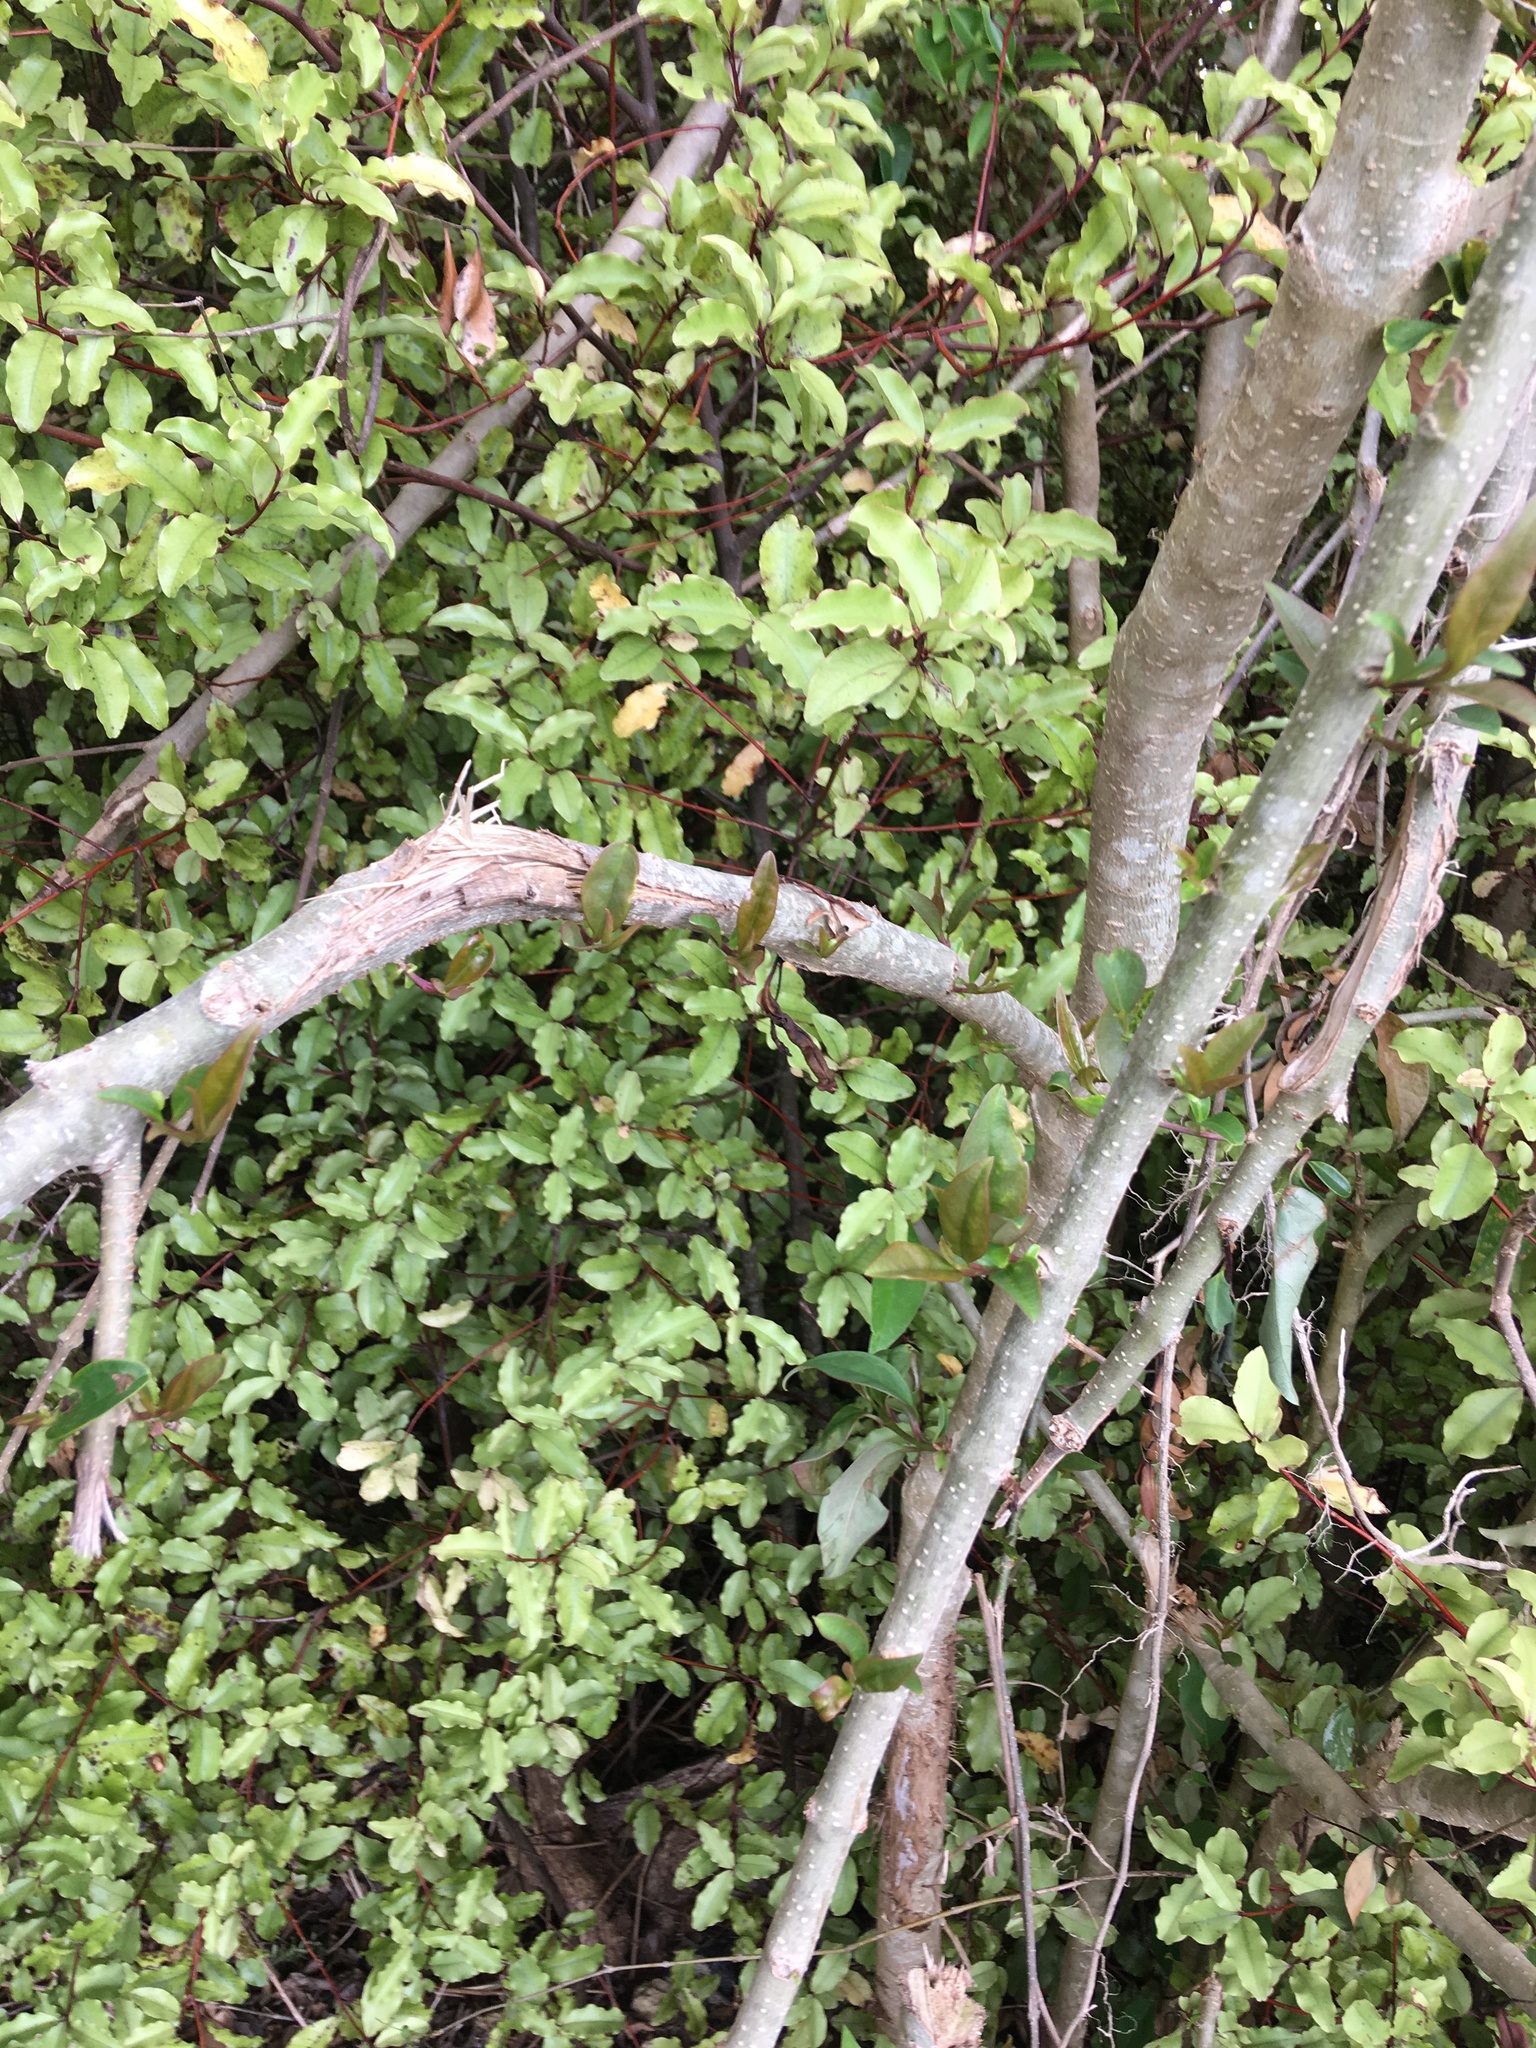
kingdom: Plantae
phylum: Tracheophyta
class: Magnoliopsida
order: Lamiales
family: Oleaceae
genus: Ligustrum
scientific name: Ligustrum lucidum
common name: Glossy privet
